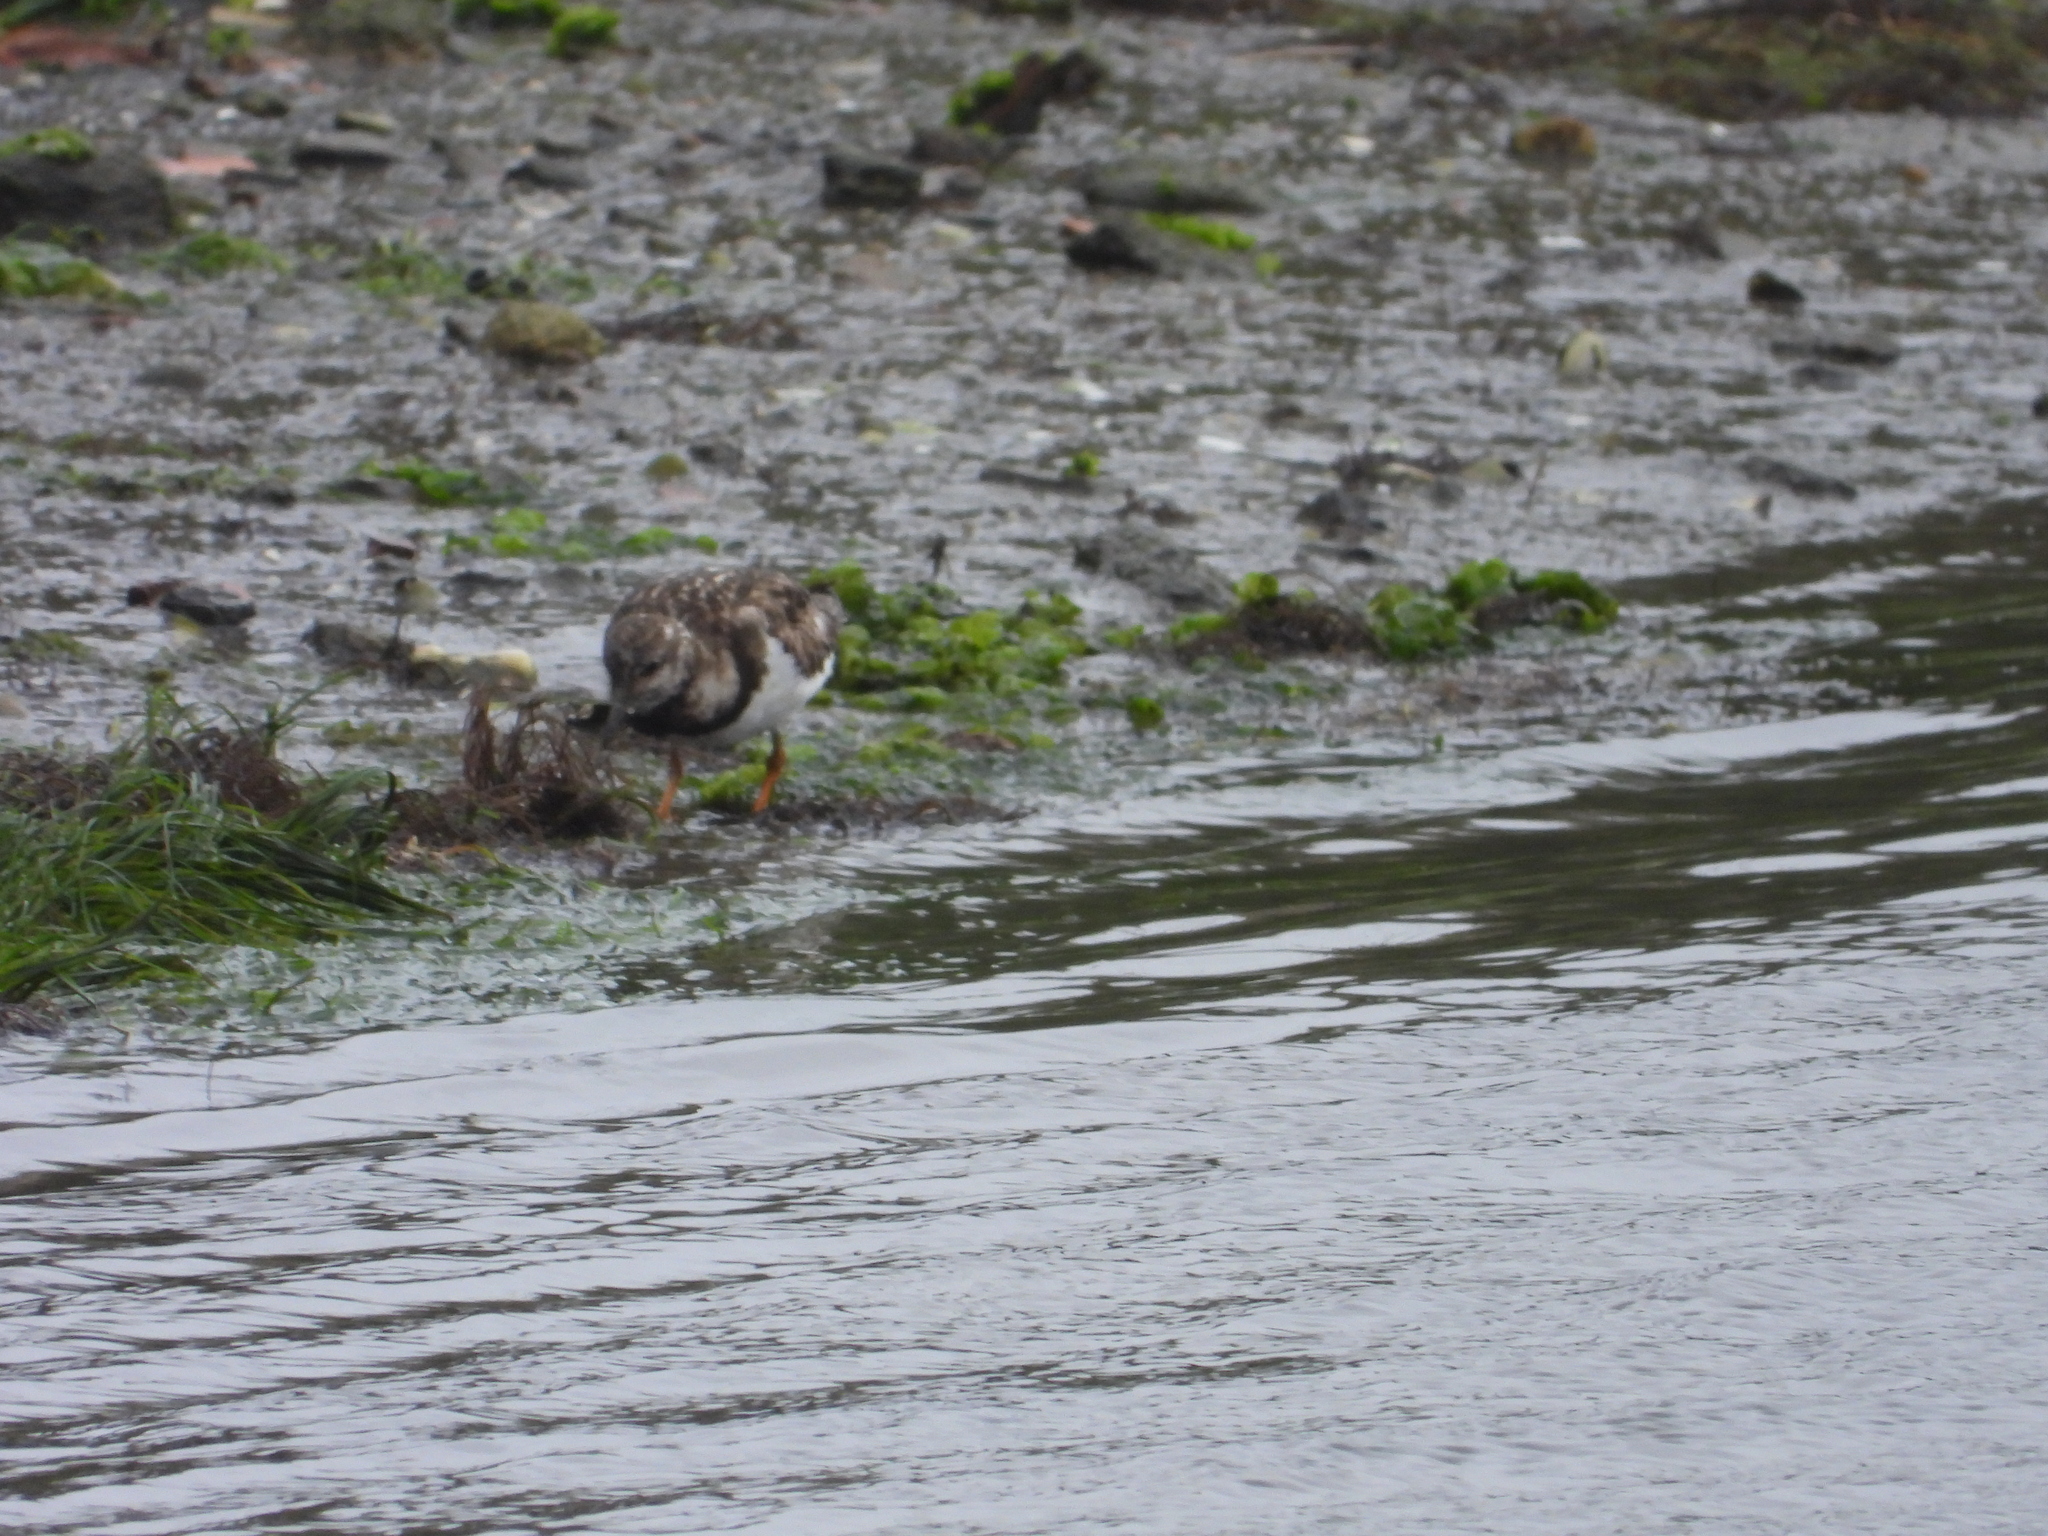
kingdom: Animalia
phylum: Chordata
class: Aves
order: Charadriiformes
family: Scolopacidae
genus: Arenaria
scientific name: Arenaria interpres
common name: Ruddy turnstone
